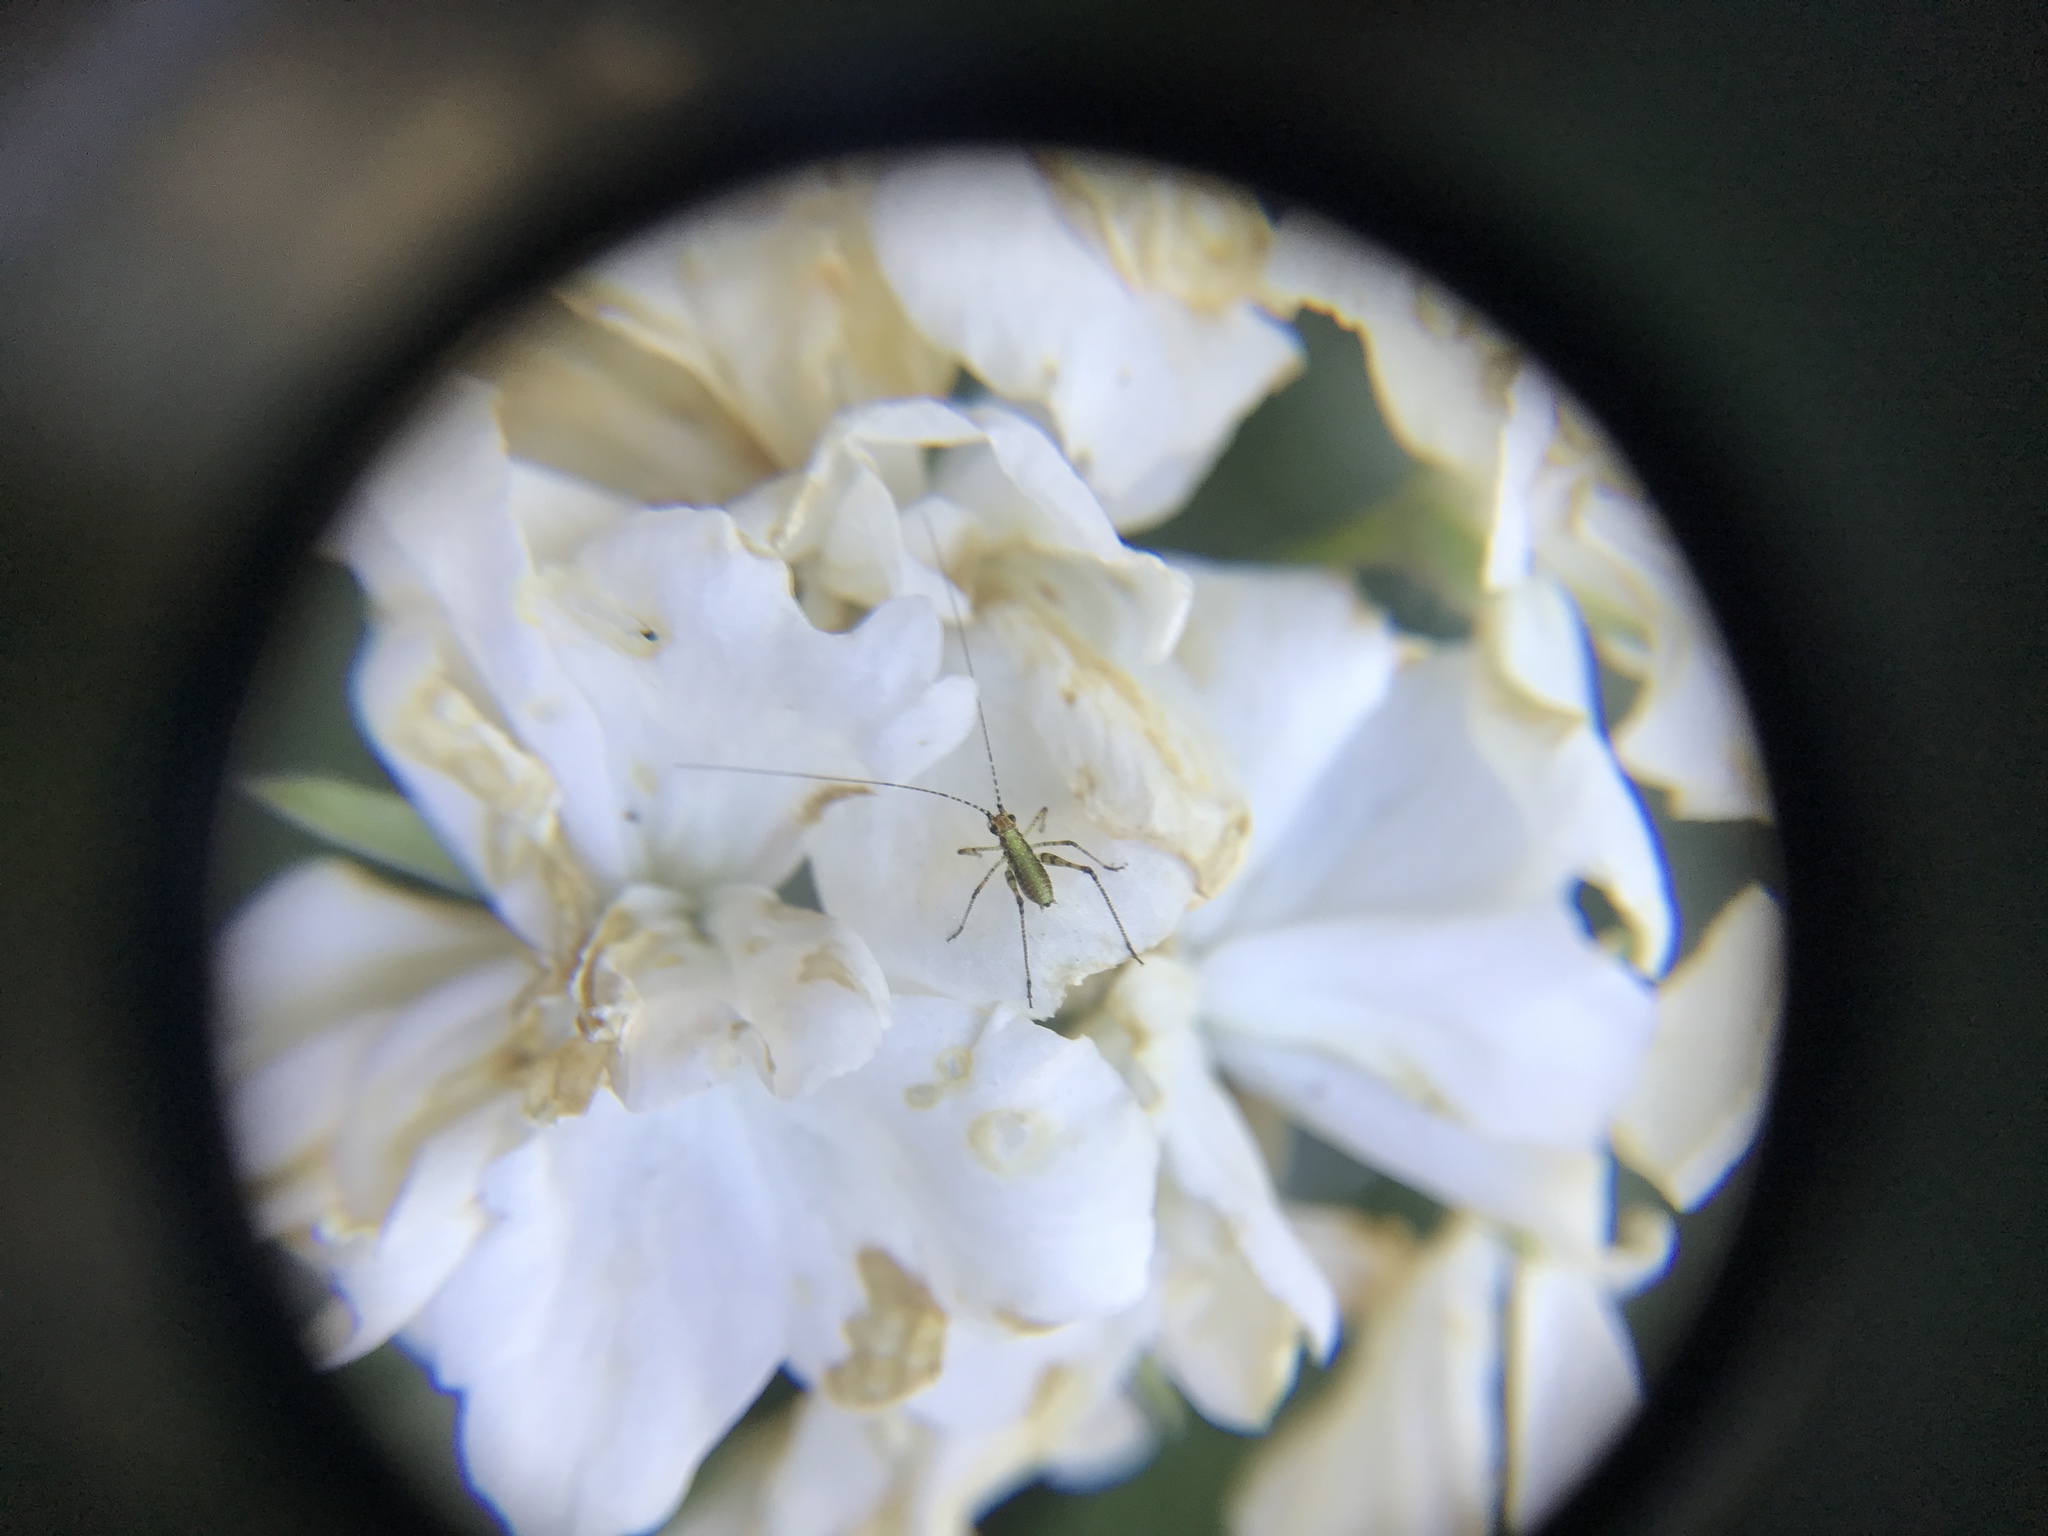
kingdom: Animalia
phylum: Arthropoda
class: Insecta
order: Orthoptera
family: Tettigoniidae
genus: Phaneroptera
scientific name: Phaneroptera nana
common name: Southern sickle bush-cricket
